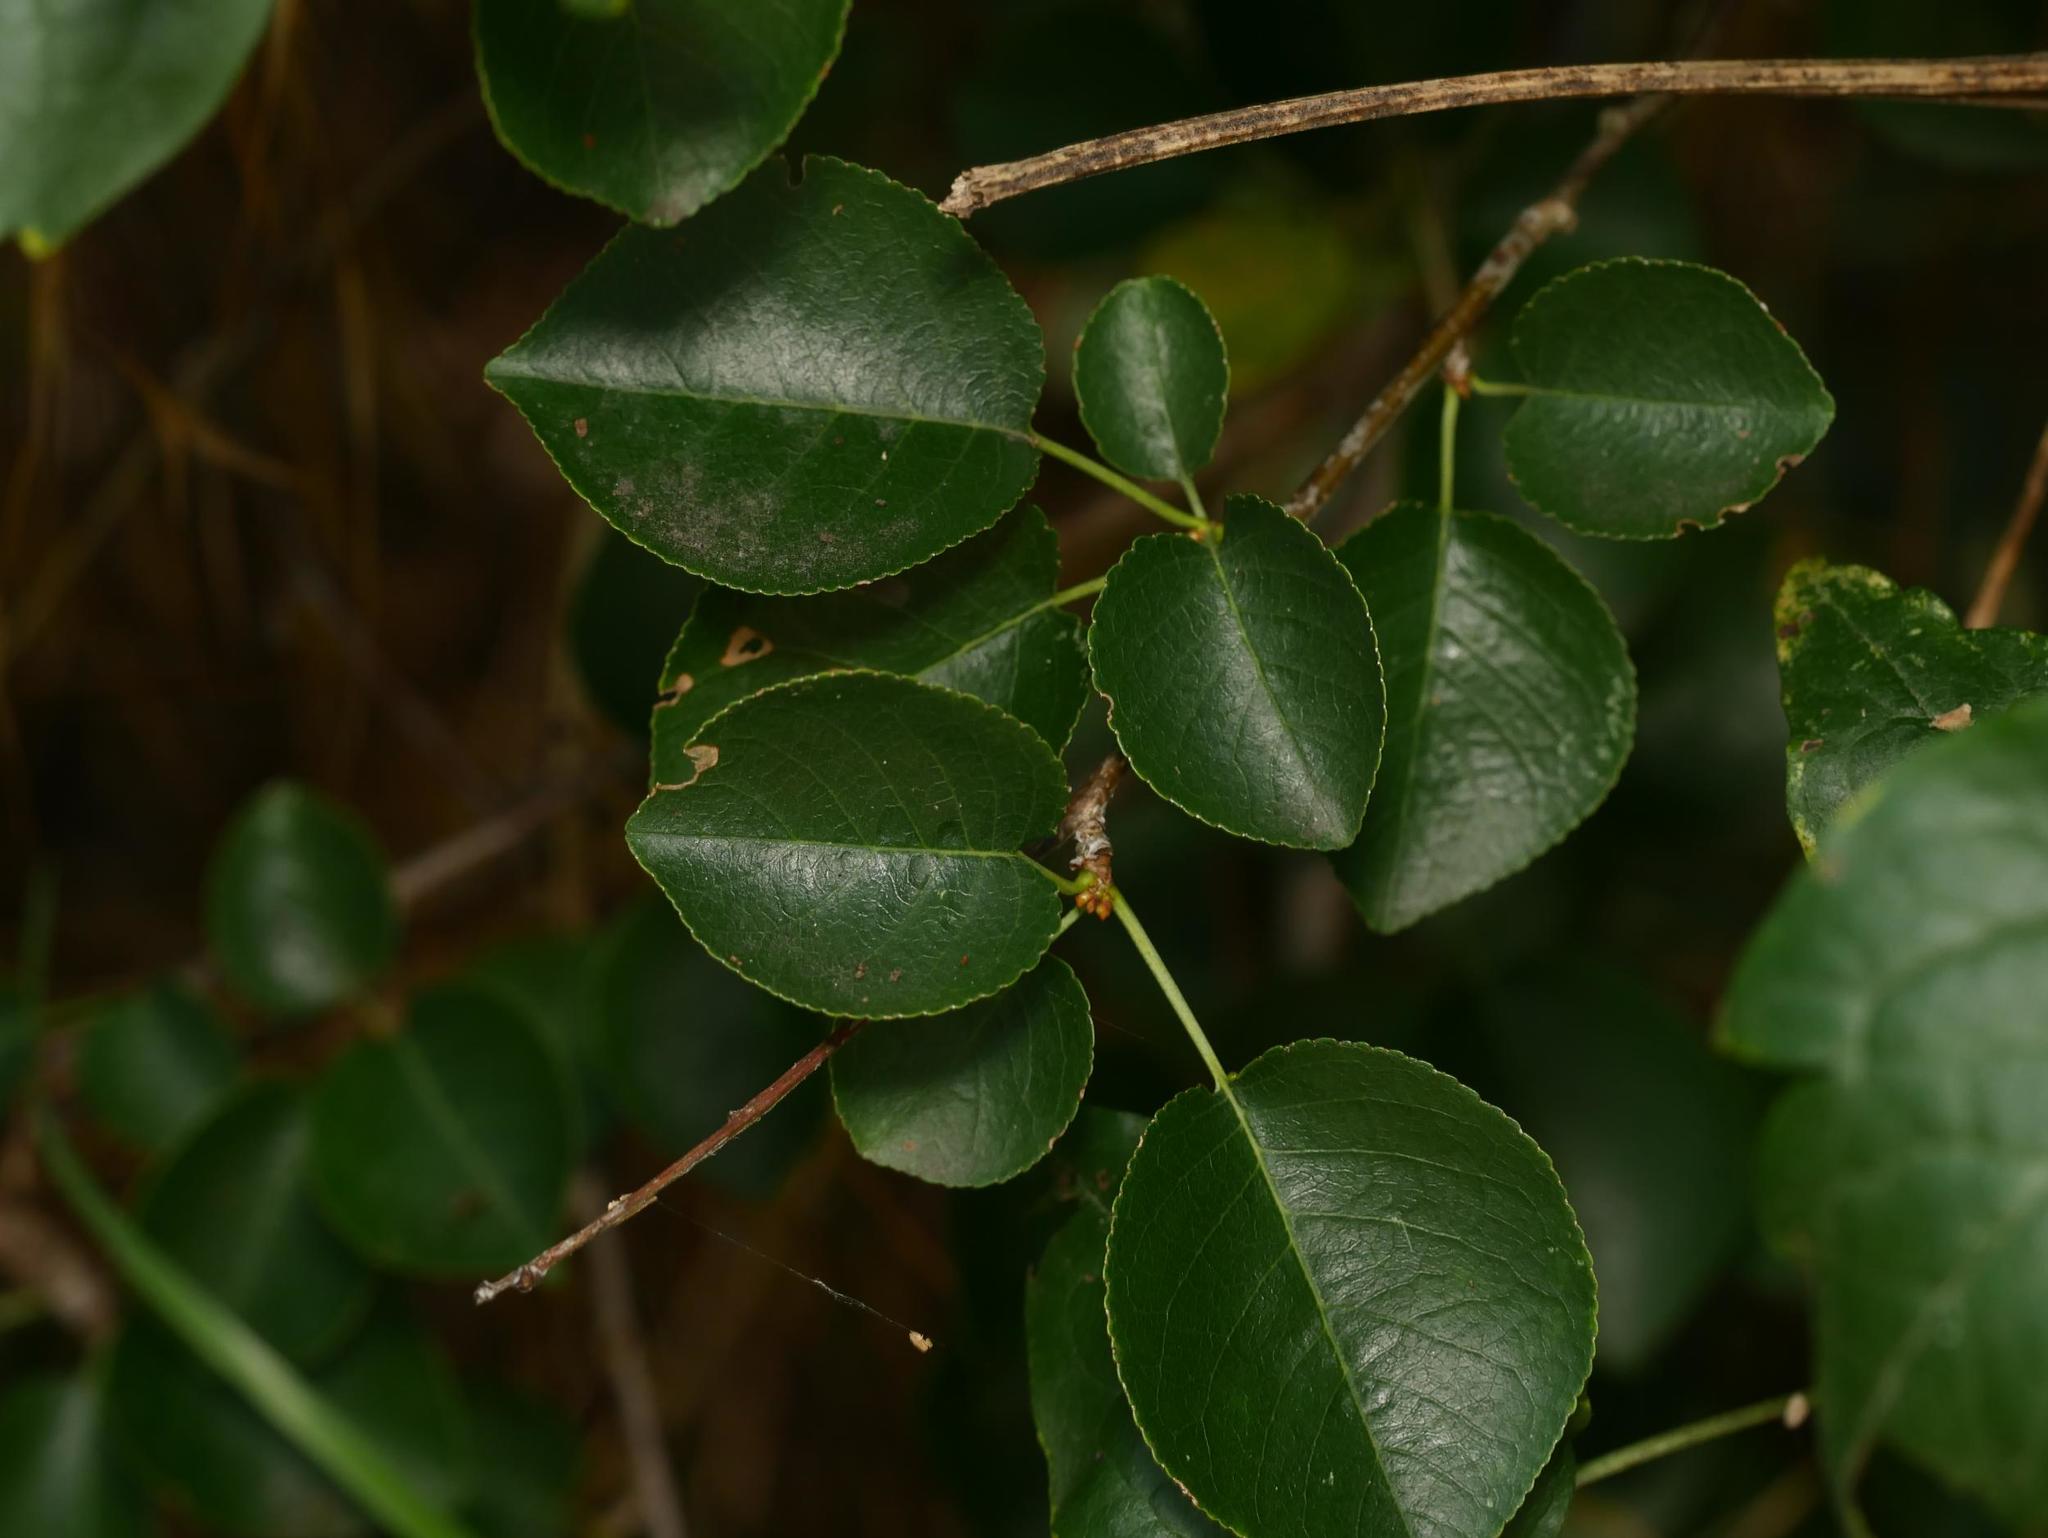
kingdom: Plantae
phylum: Tracheophyta
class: Magnoliopsida
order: Rosales
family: Rosaceae
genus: Prunus
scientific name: Prunus mahaleb
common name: Mahaleb cherry
